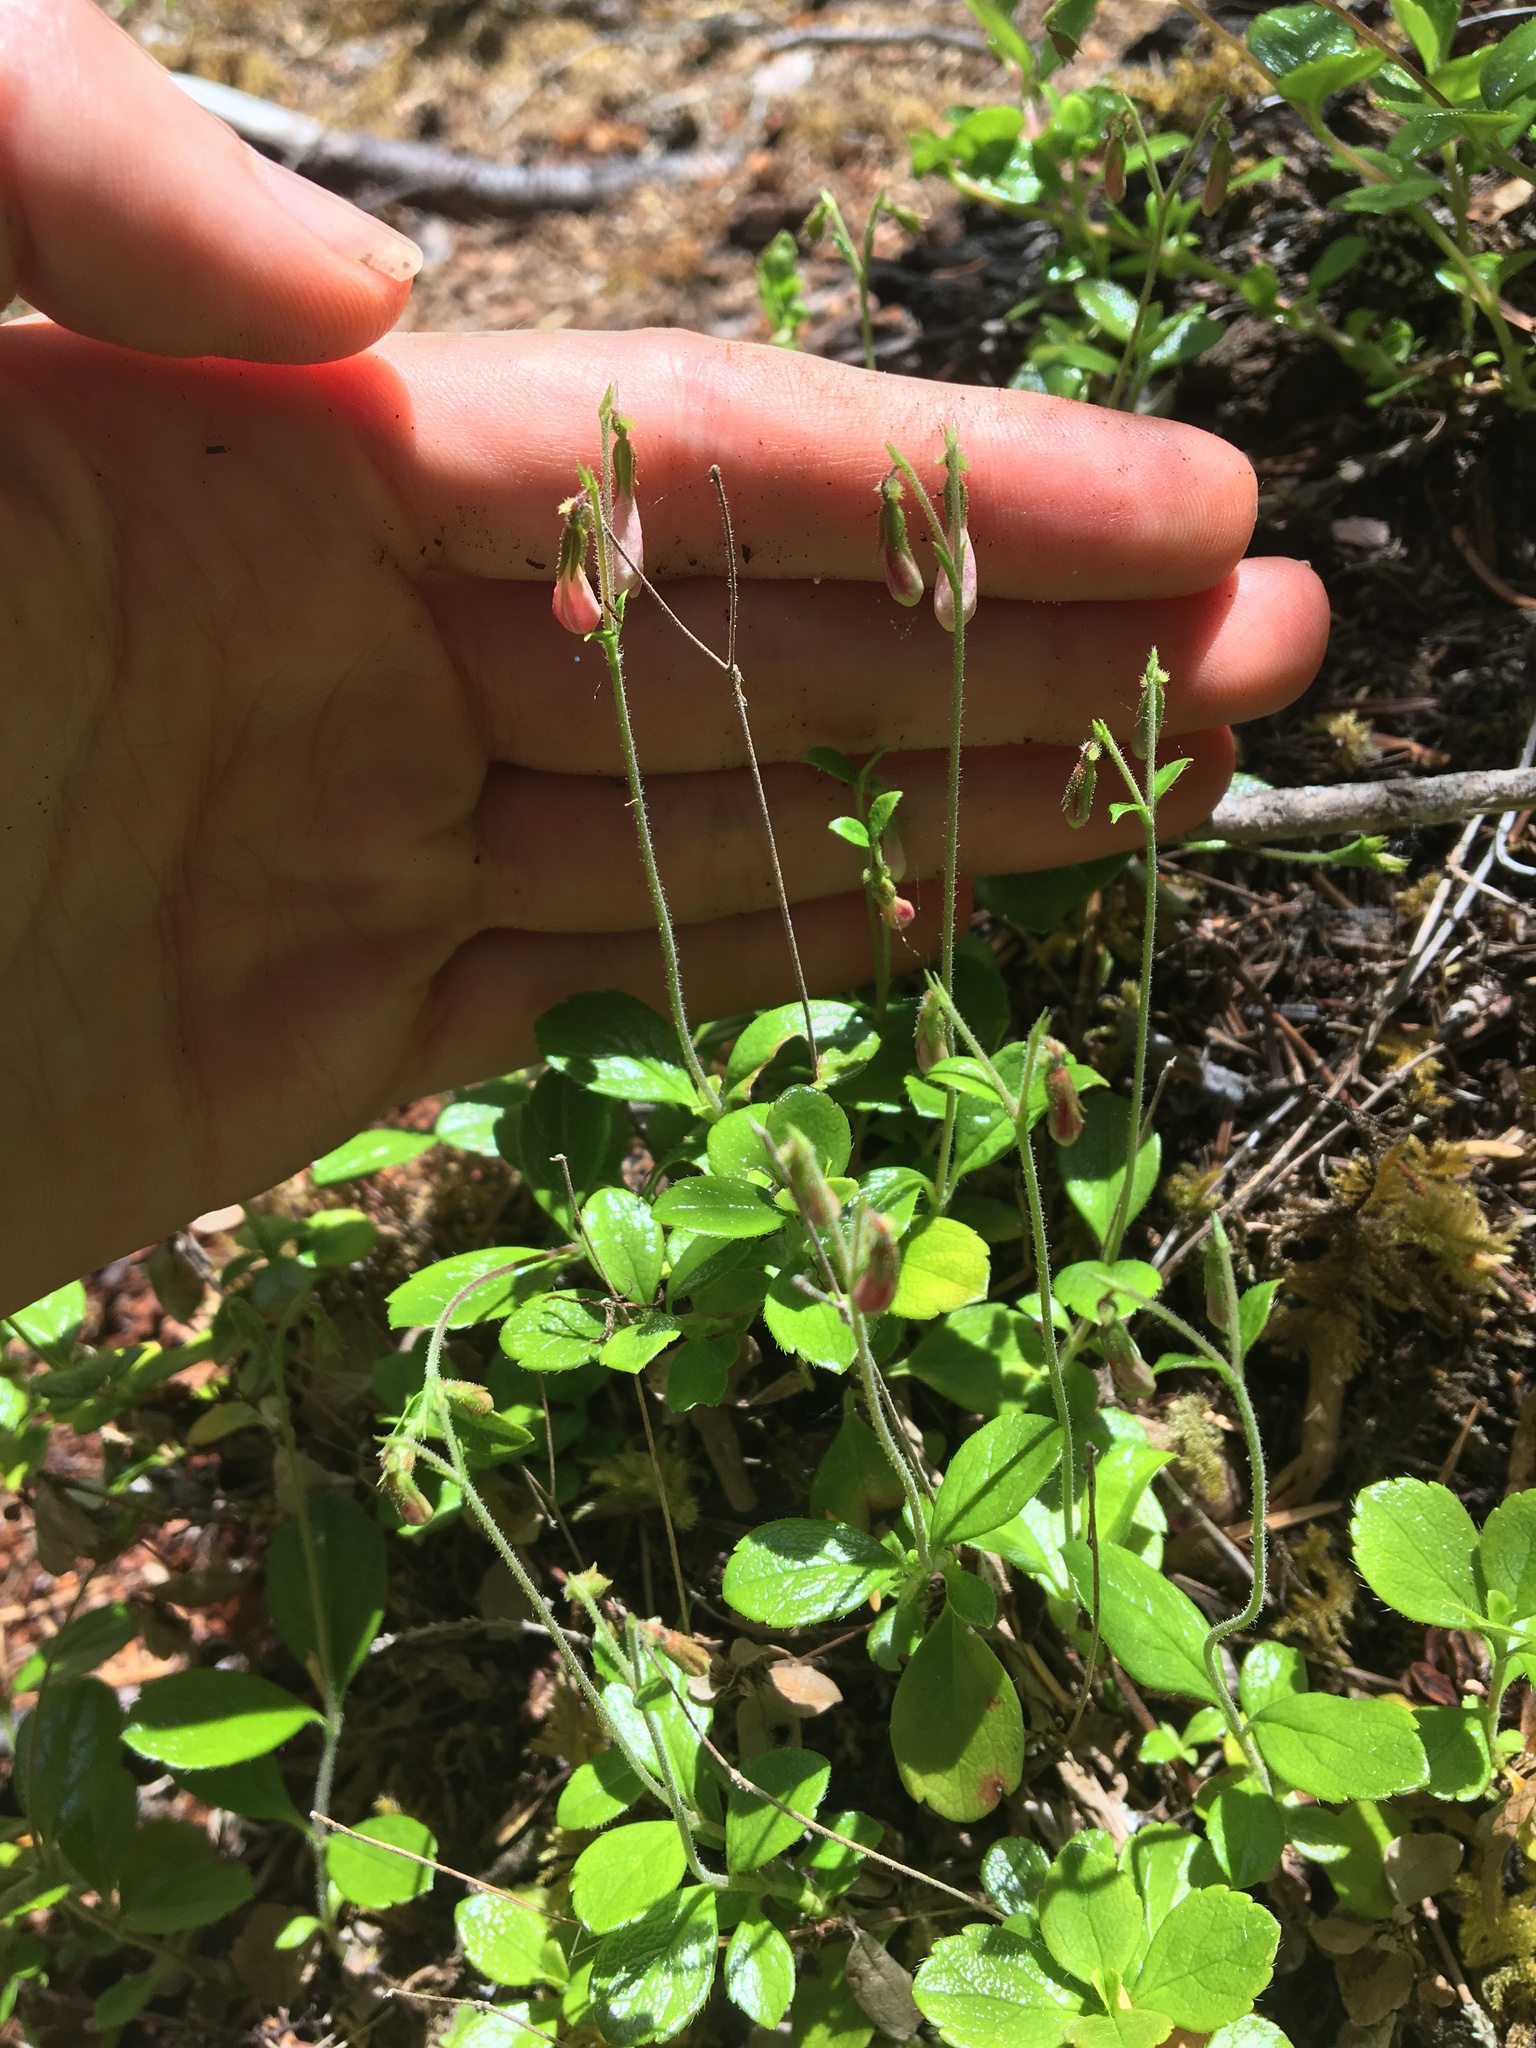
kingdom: Plantae
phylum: Tracheophyta
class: Magnoliopsida
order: Dipsacales
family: Caprifoliaceae
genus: Linnaea
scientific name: Linnaea borealis
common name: Twinflower
